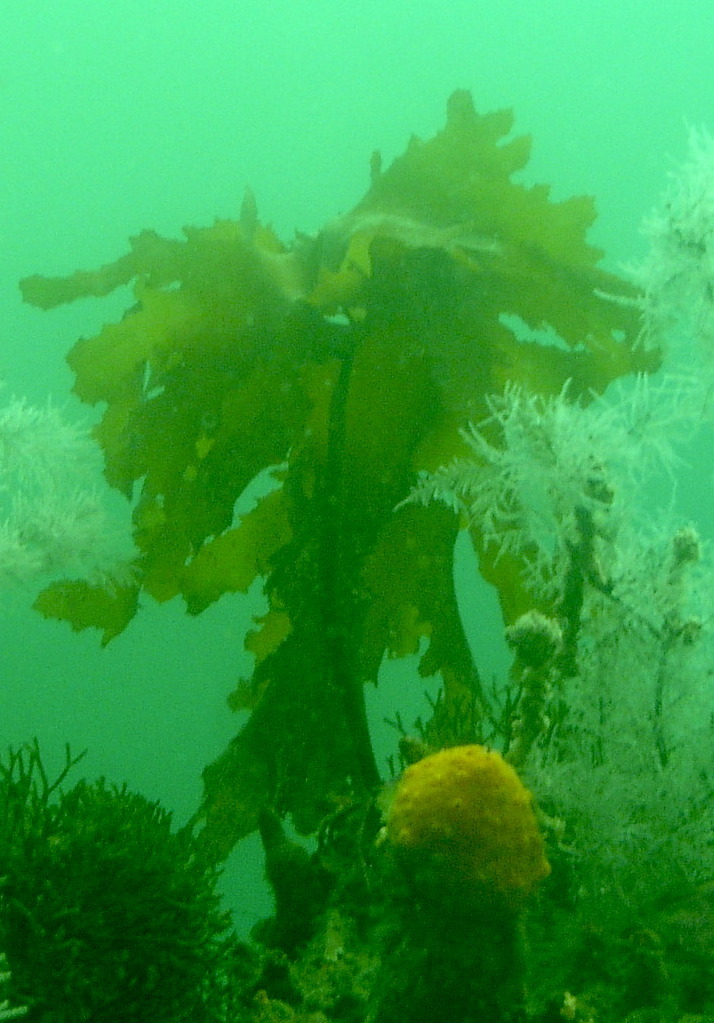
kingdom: Chromista
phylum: Ochrophyta
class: Phaeophyceae
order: Laminariales
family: Lessoniaceae
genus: Ecklonia
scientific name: Ecklonia radiata
